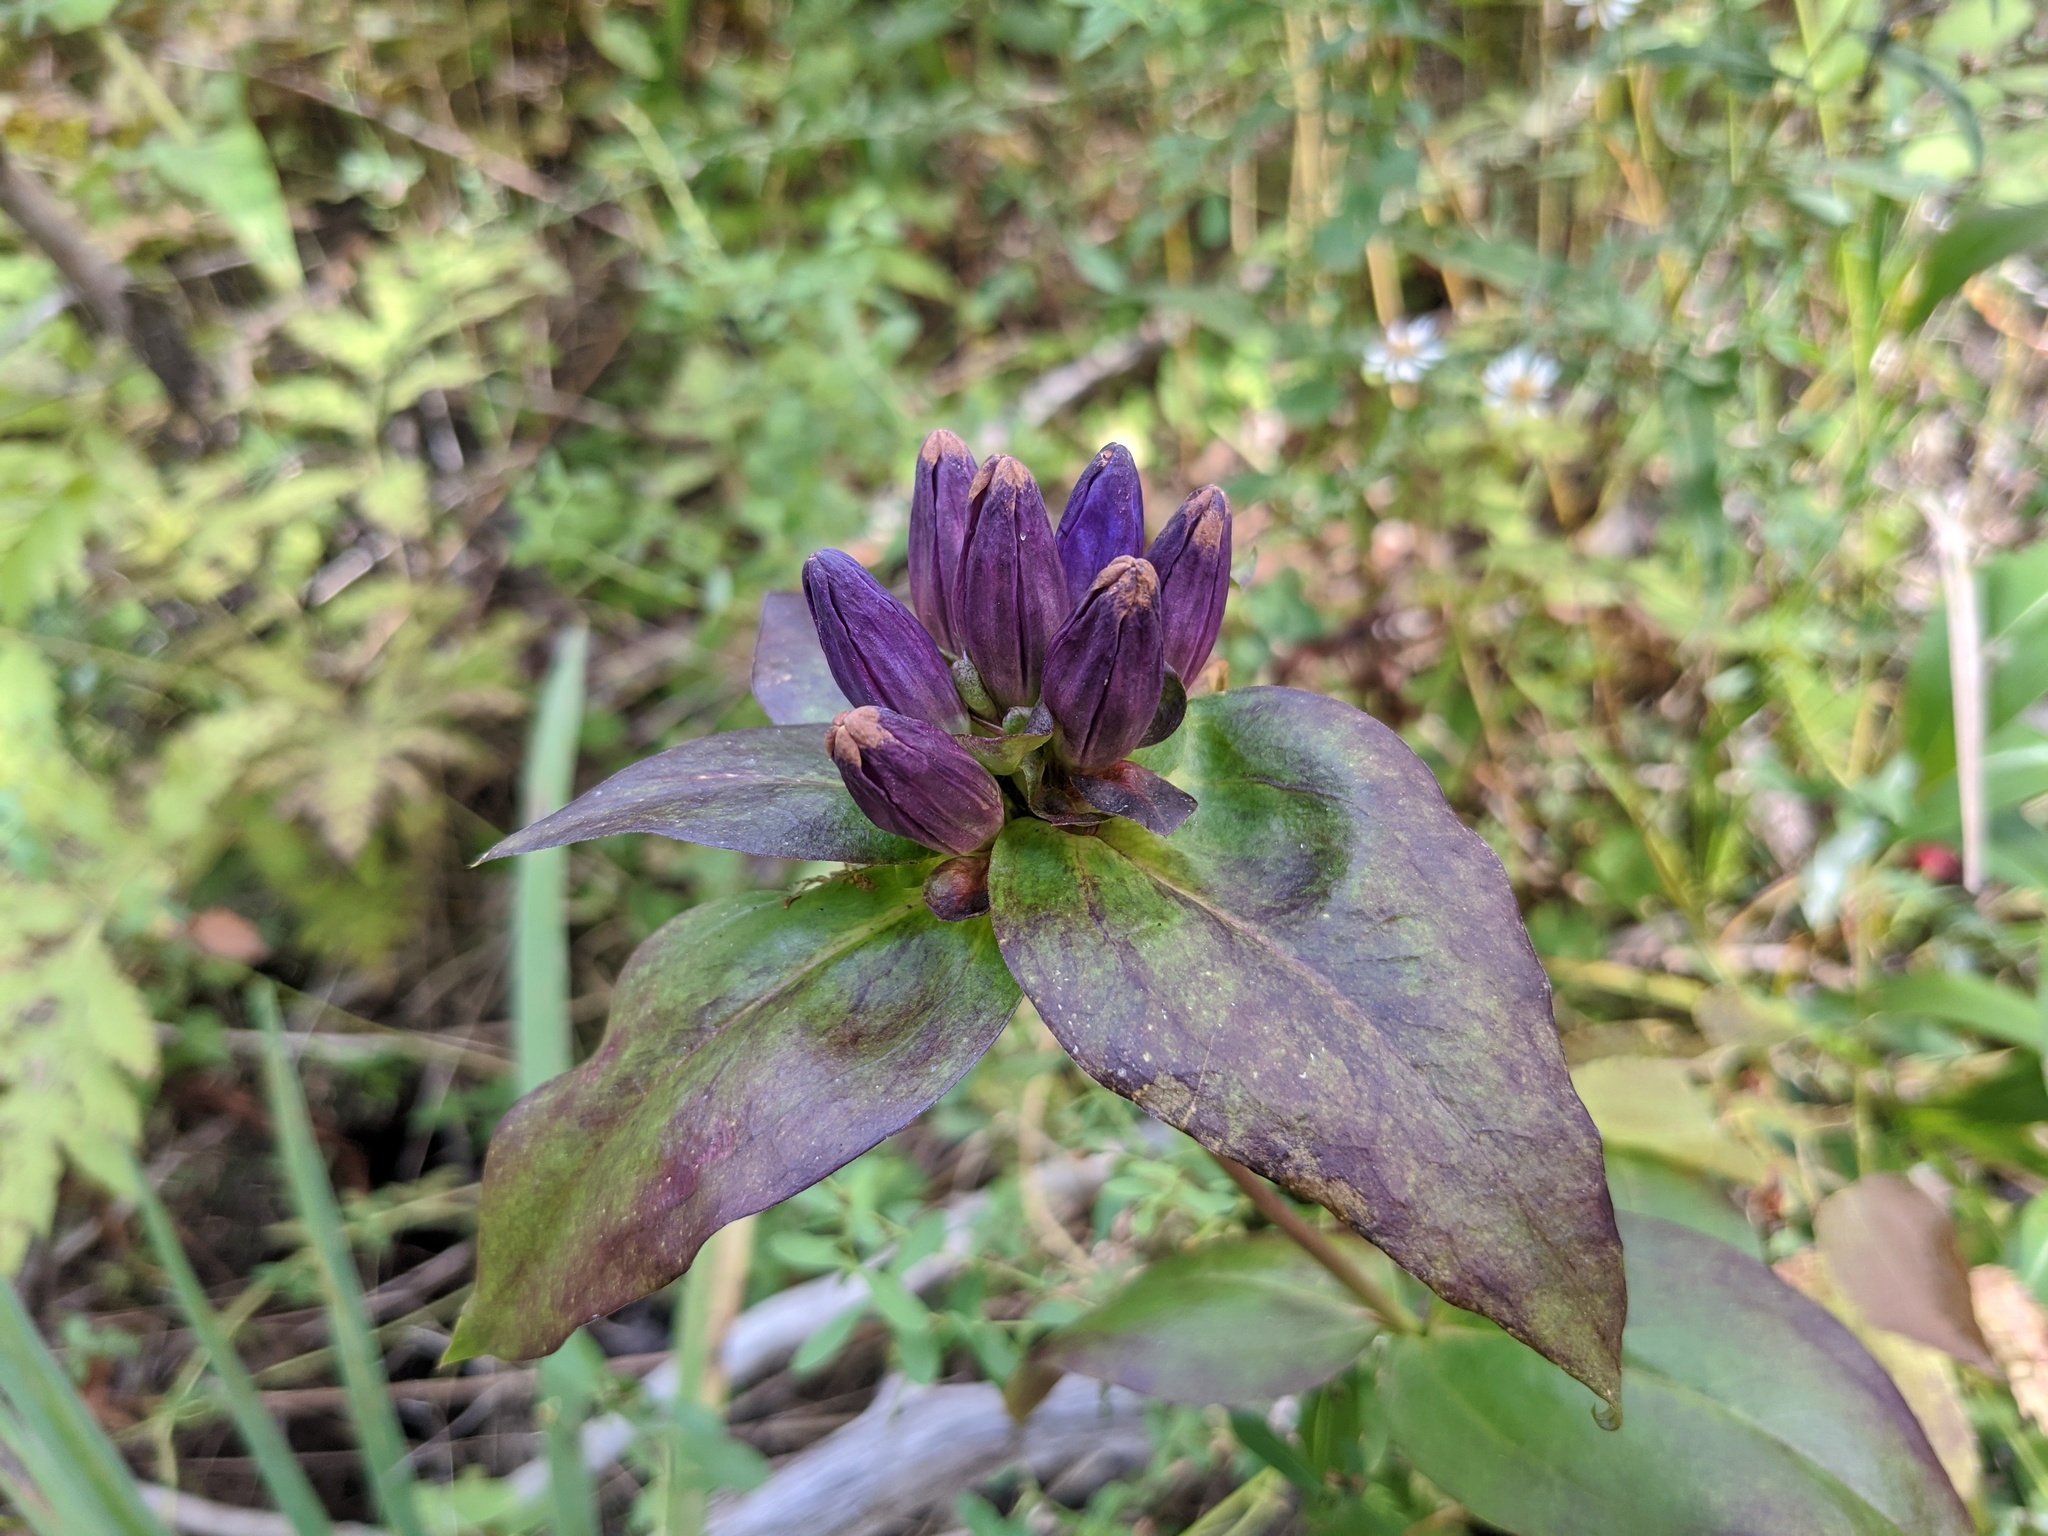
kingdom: Plantae
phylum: Tracheophyta
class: Magnoliopsida
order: Gentianales
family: Gentianaceae
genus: Gentiana
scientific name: Gentiana clausa
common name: Blind gentian
